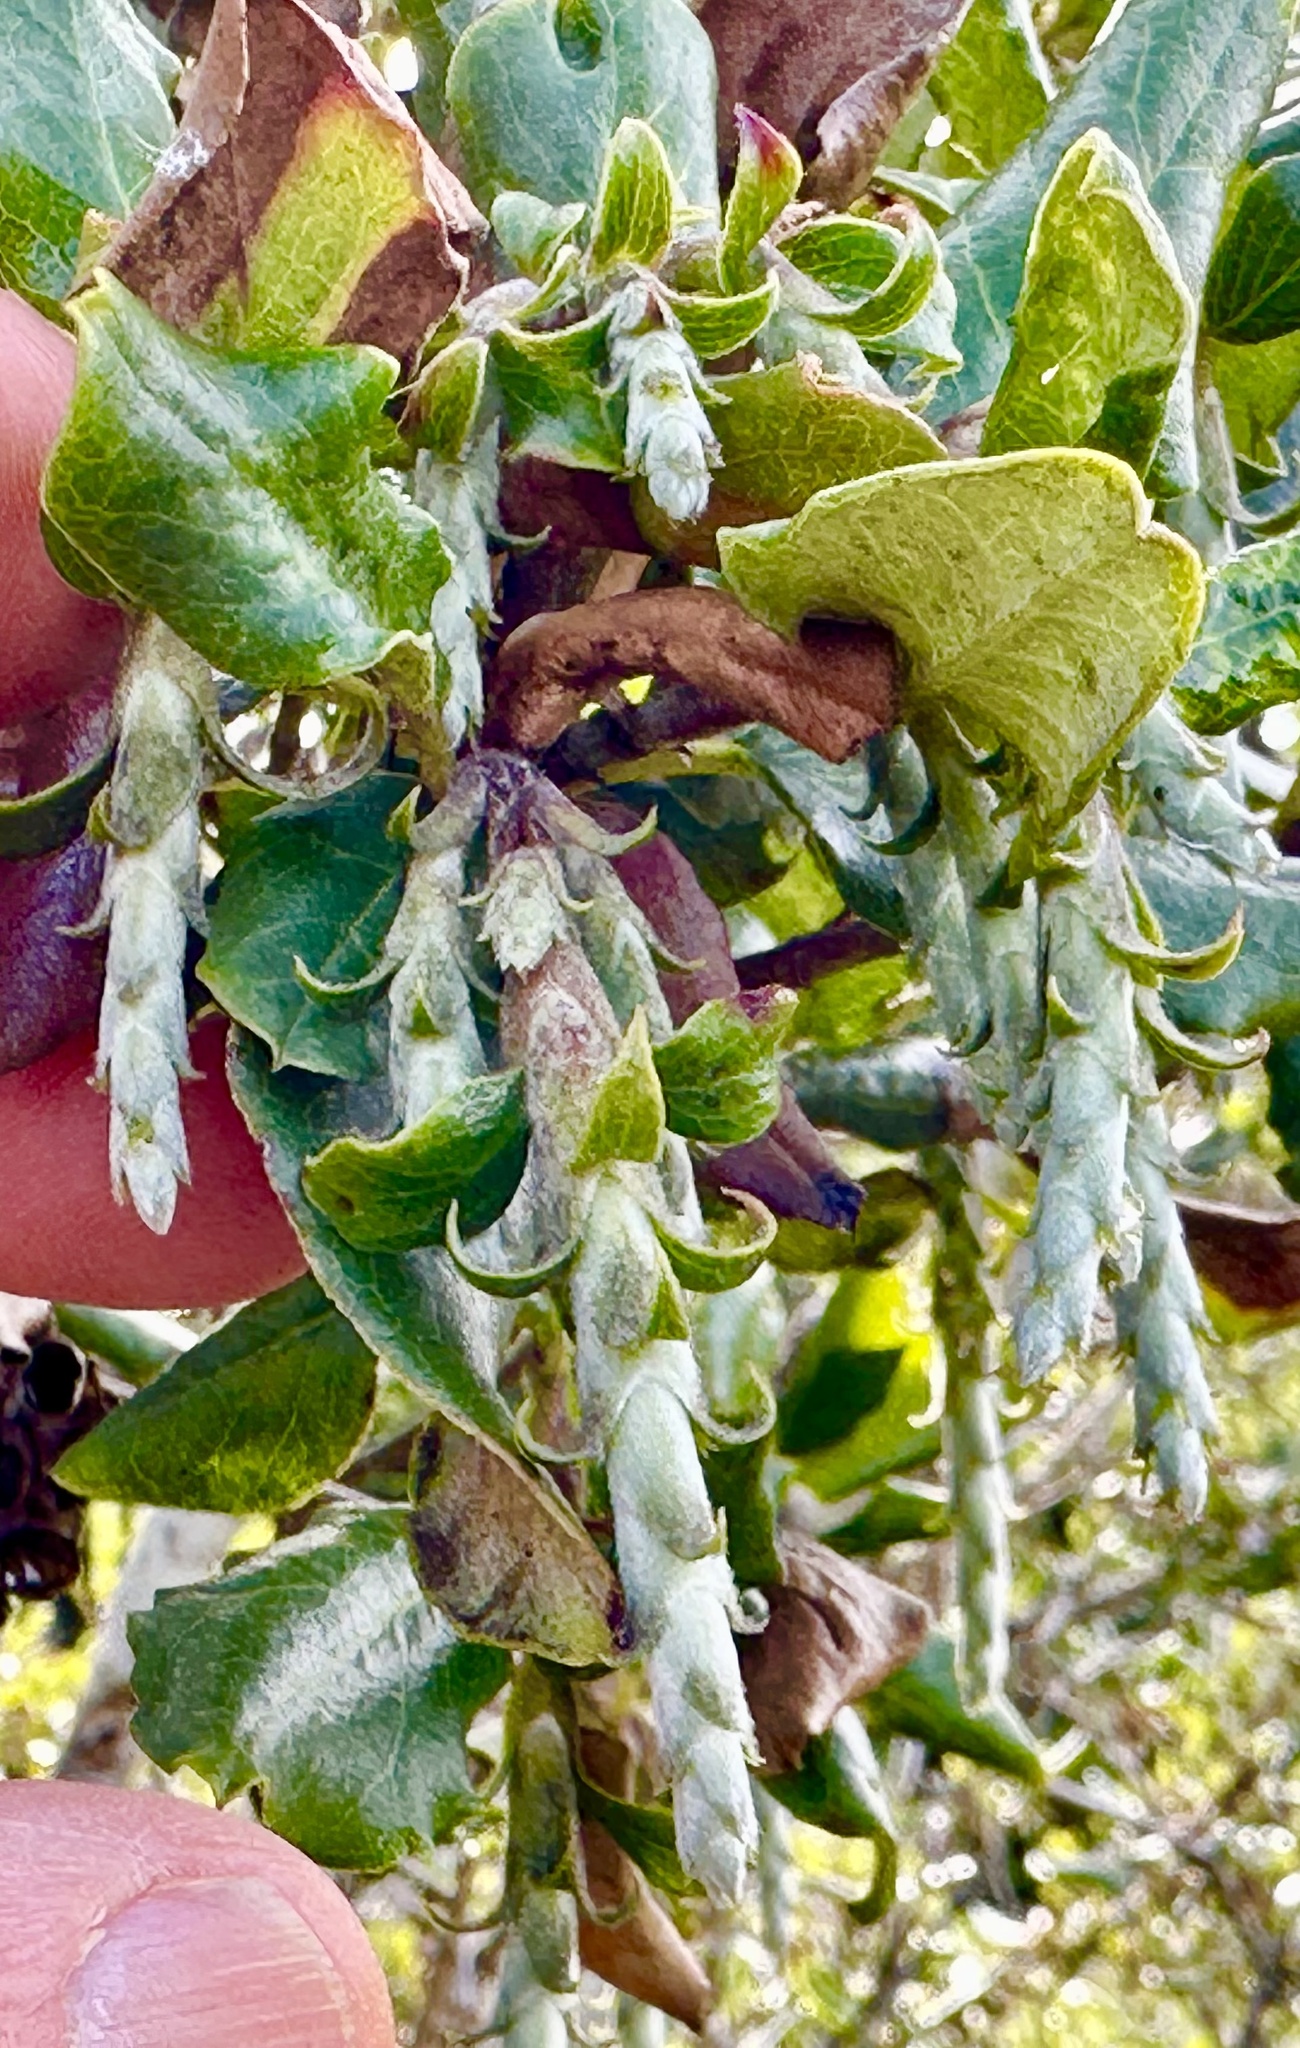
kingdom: Plantae
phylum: Tracheophyta
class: Magnoliopsida
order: Garryales
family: Garryaceae
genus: Garrya
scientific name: Garrya elliptica
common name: Silk-tassel
